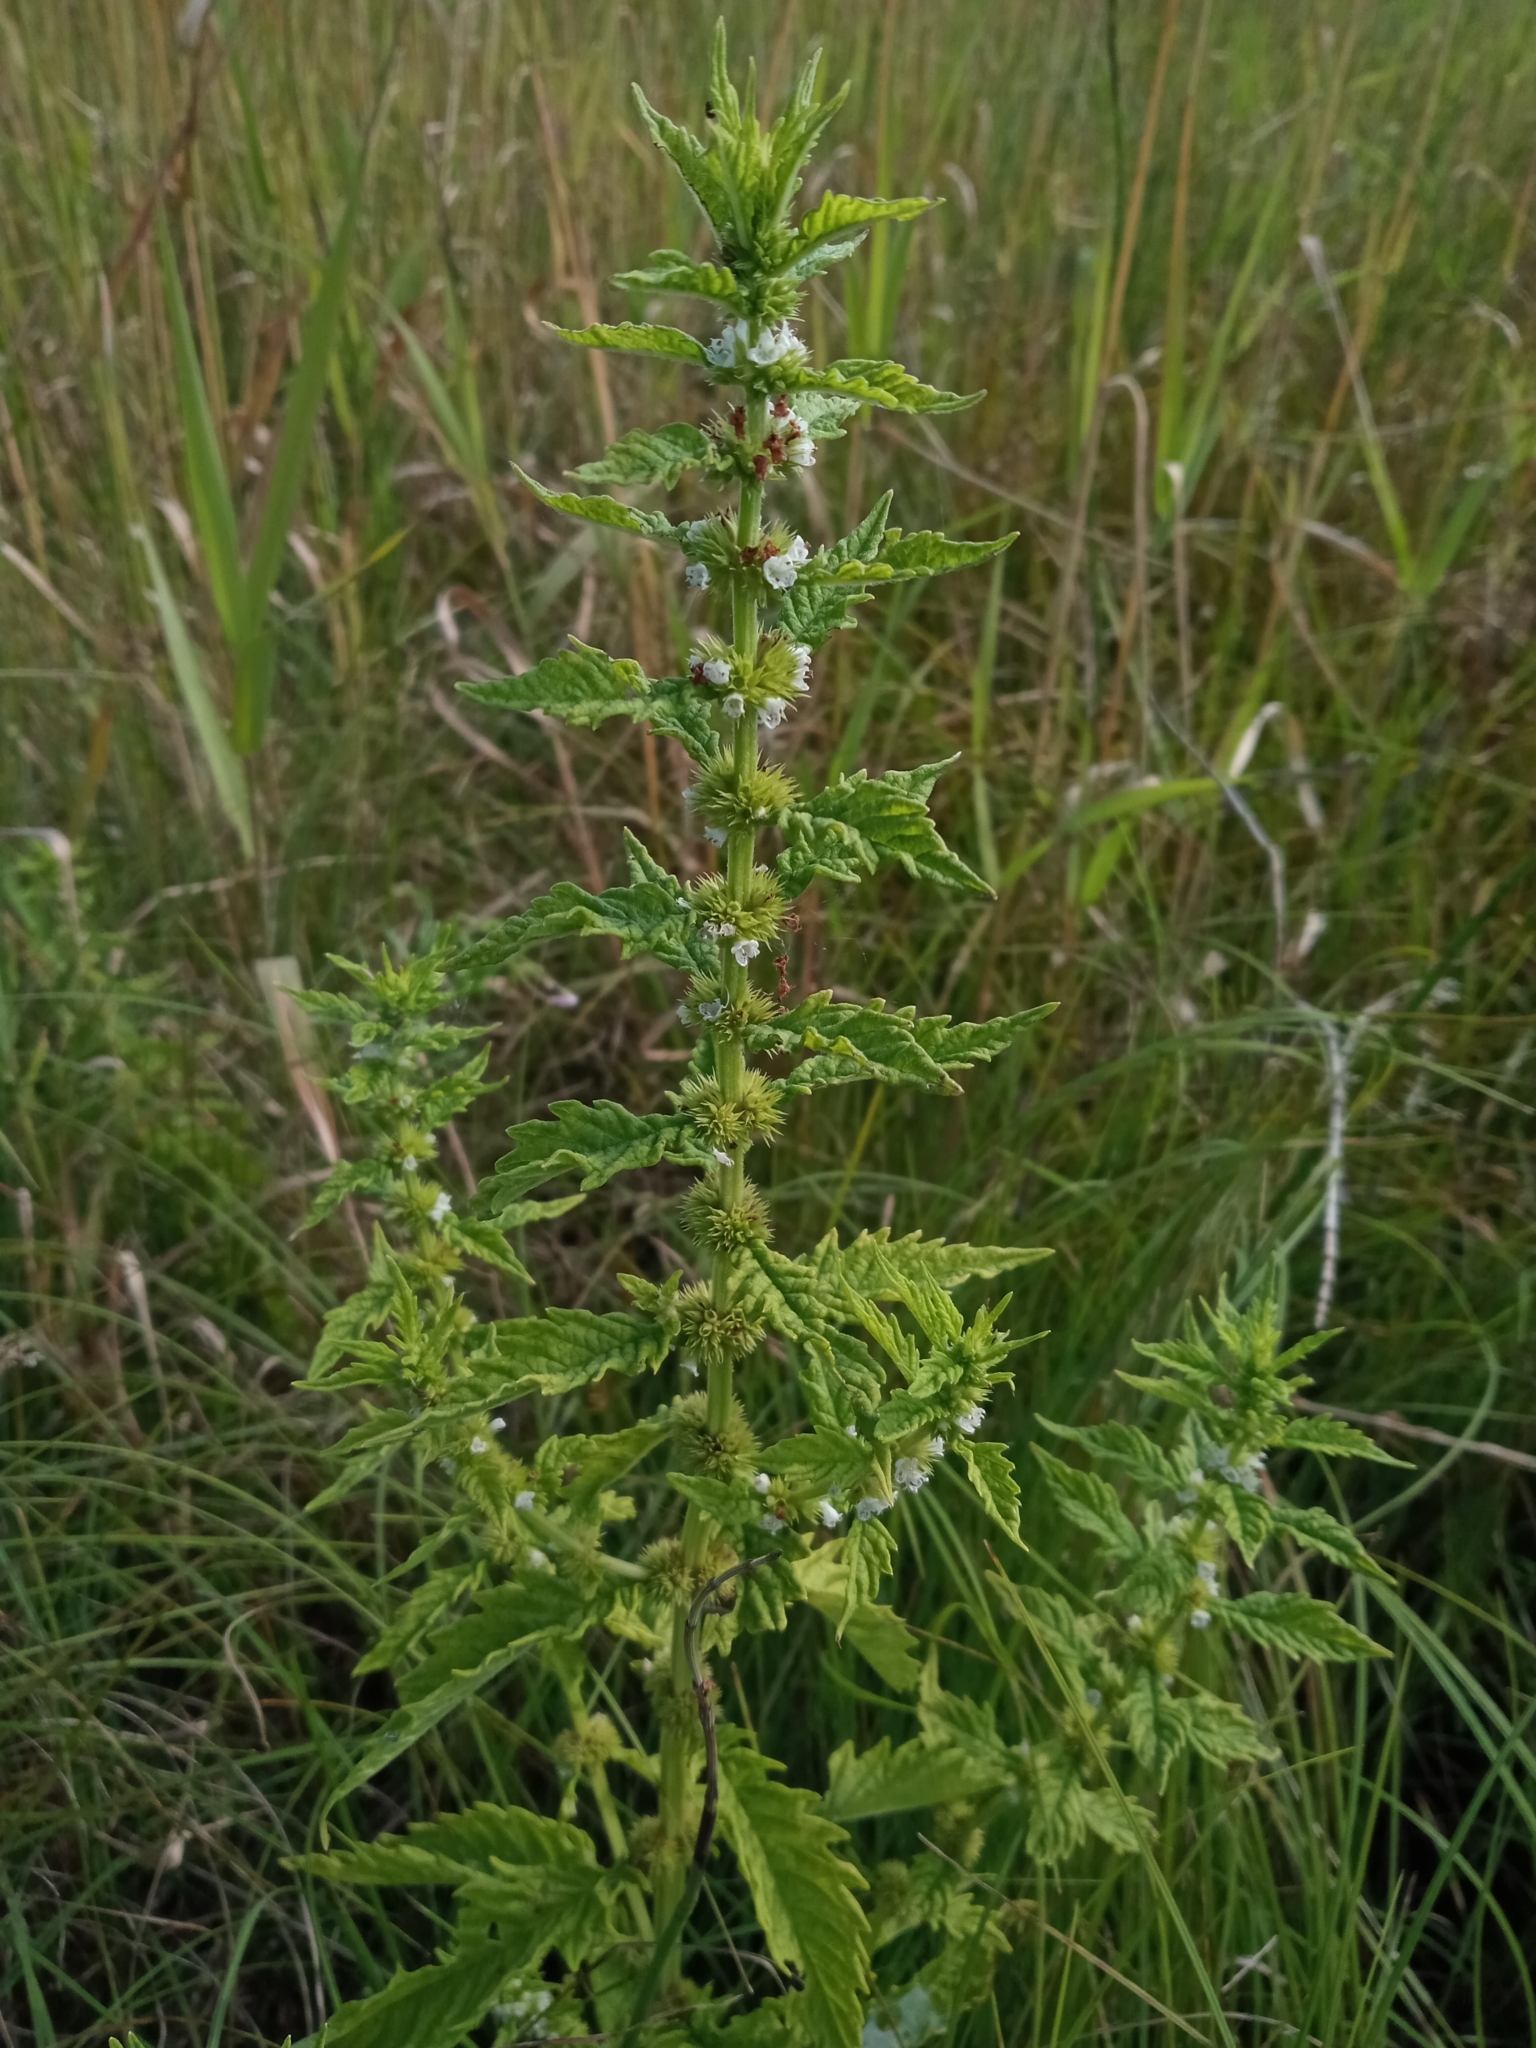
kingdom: Plantae
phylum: Tracheophyta
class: Magnoliopsida
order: Lamiales
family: Lamiaceae
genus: Lycopus
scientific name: Lycopus europaeus
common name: European bugleweed
